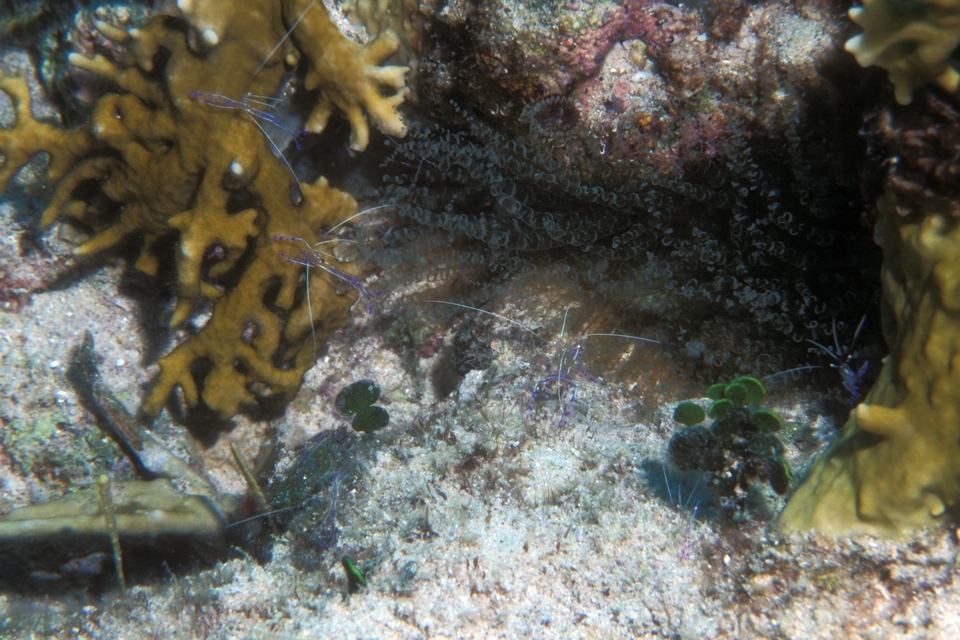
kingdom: Animalia
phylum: Arthropoda
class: Malacostraca
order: Decapoda
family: Palaemonidae
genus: Ancylomenes
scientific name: Ancylomenes pedersoni
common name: Pederson's cleaning shrimp
